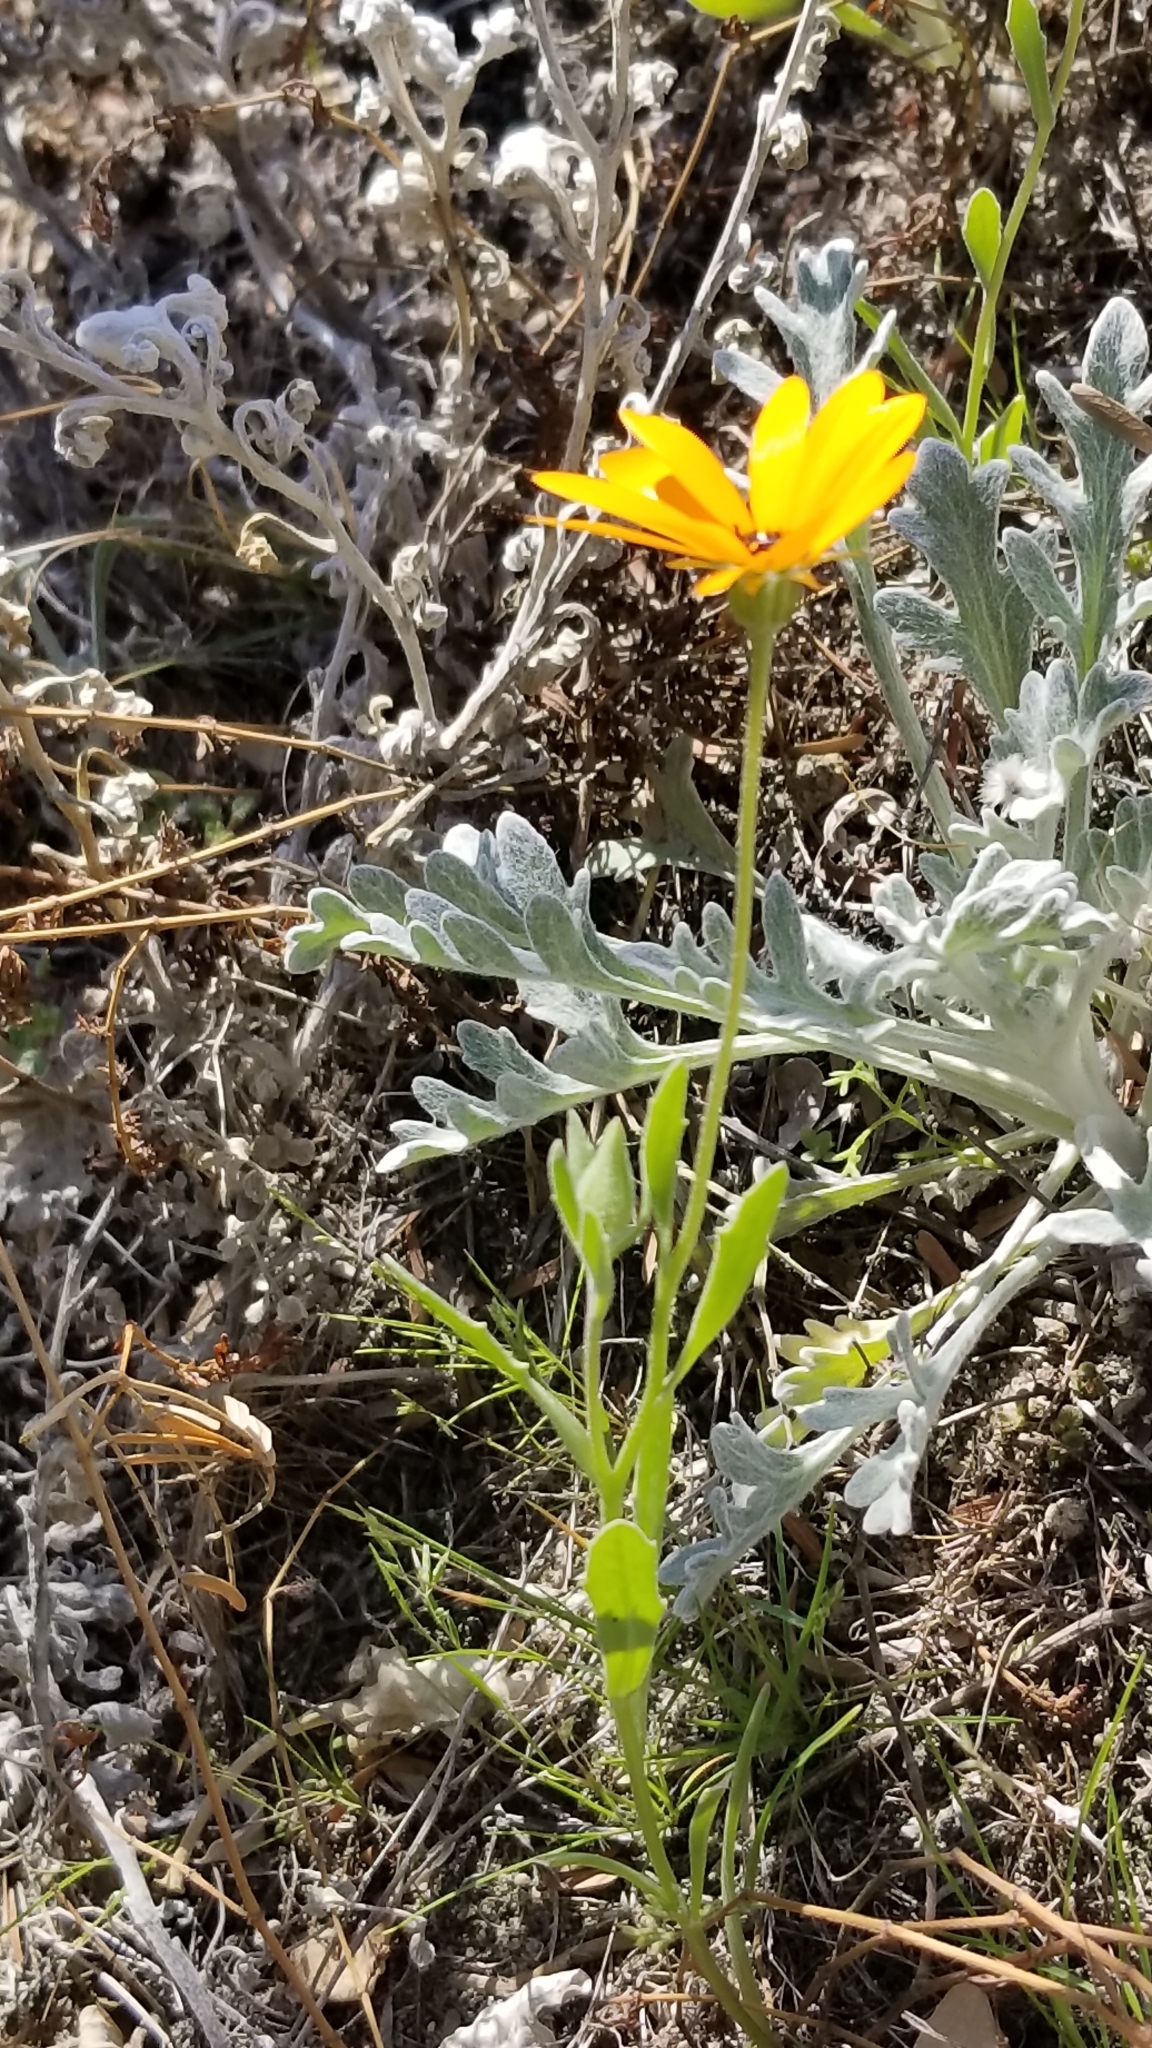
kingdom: Plantae
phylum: Tracheophyta
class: Magnoliopsida
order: Asterales
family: Asteraceae
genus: Dimorphotheca
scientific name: Dimorphotheca sinuata
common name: Glandular cape marigold
